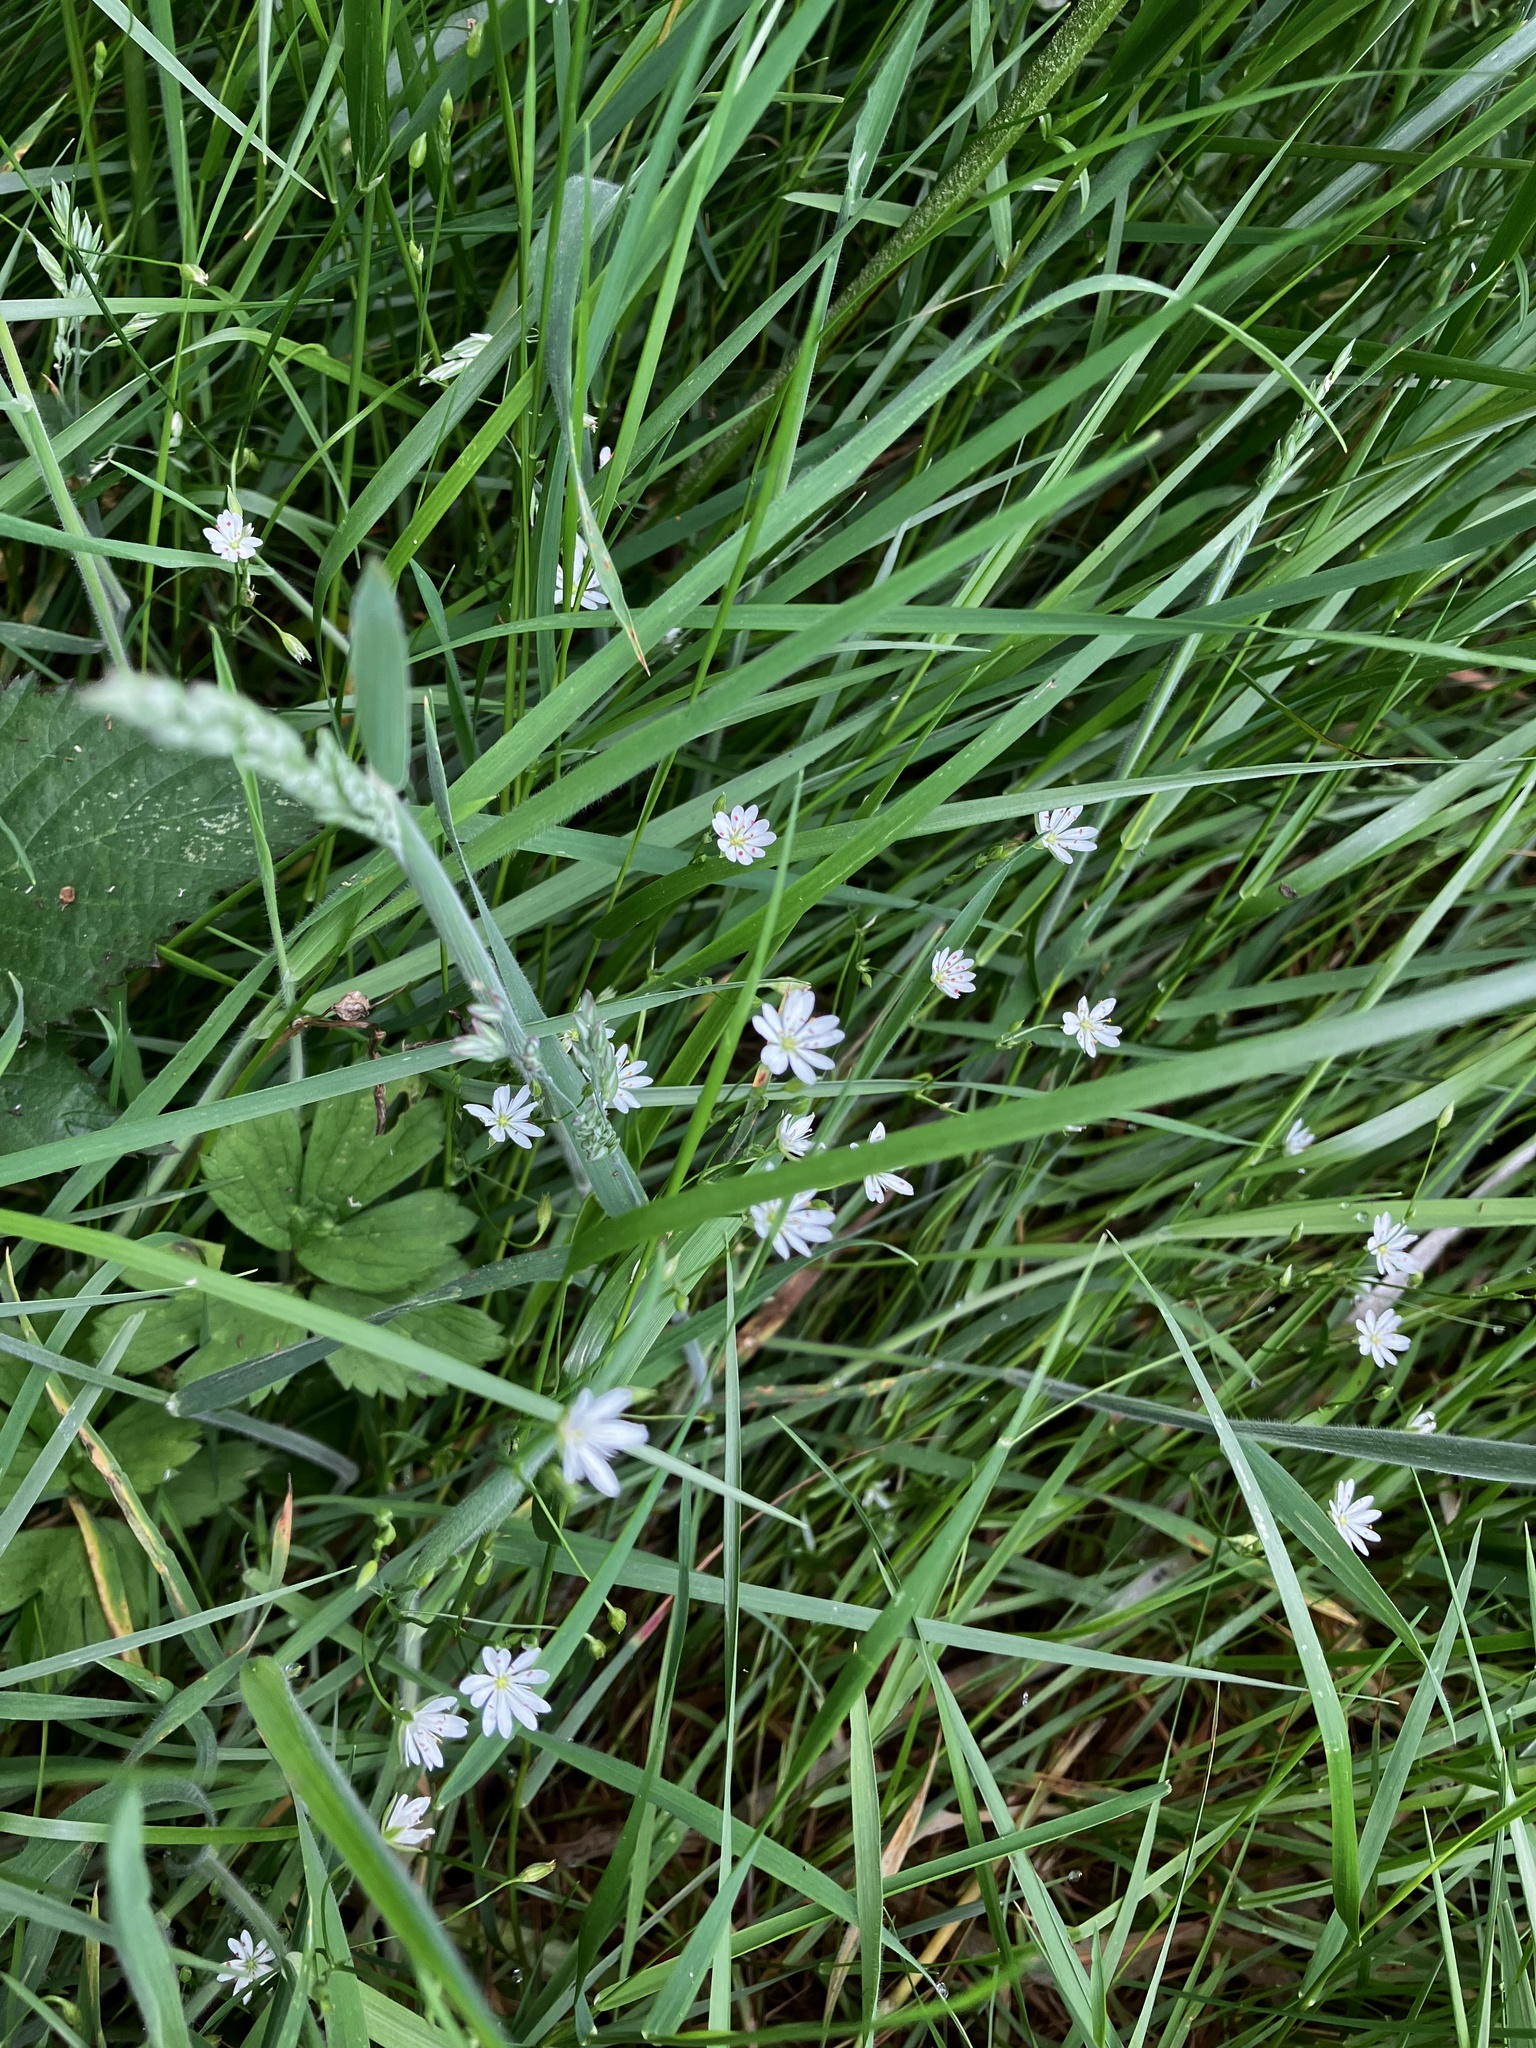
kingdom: Plantae
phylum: Tracheophyta
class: Magnoliopsida
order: Caryophyllales
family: Caryophyllaceae
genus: Stellaria
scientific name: Stellaria graminea
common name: Grass-like starwort
